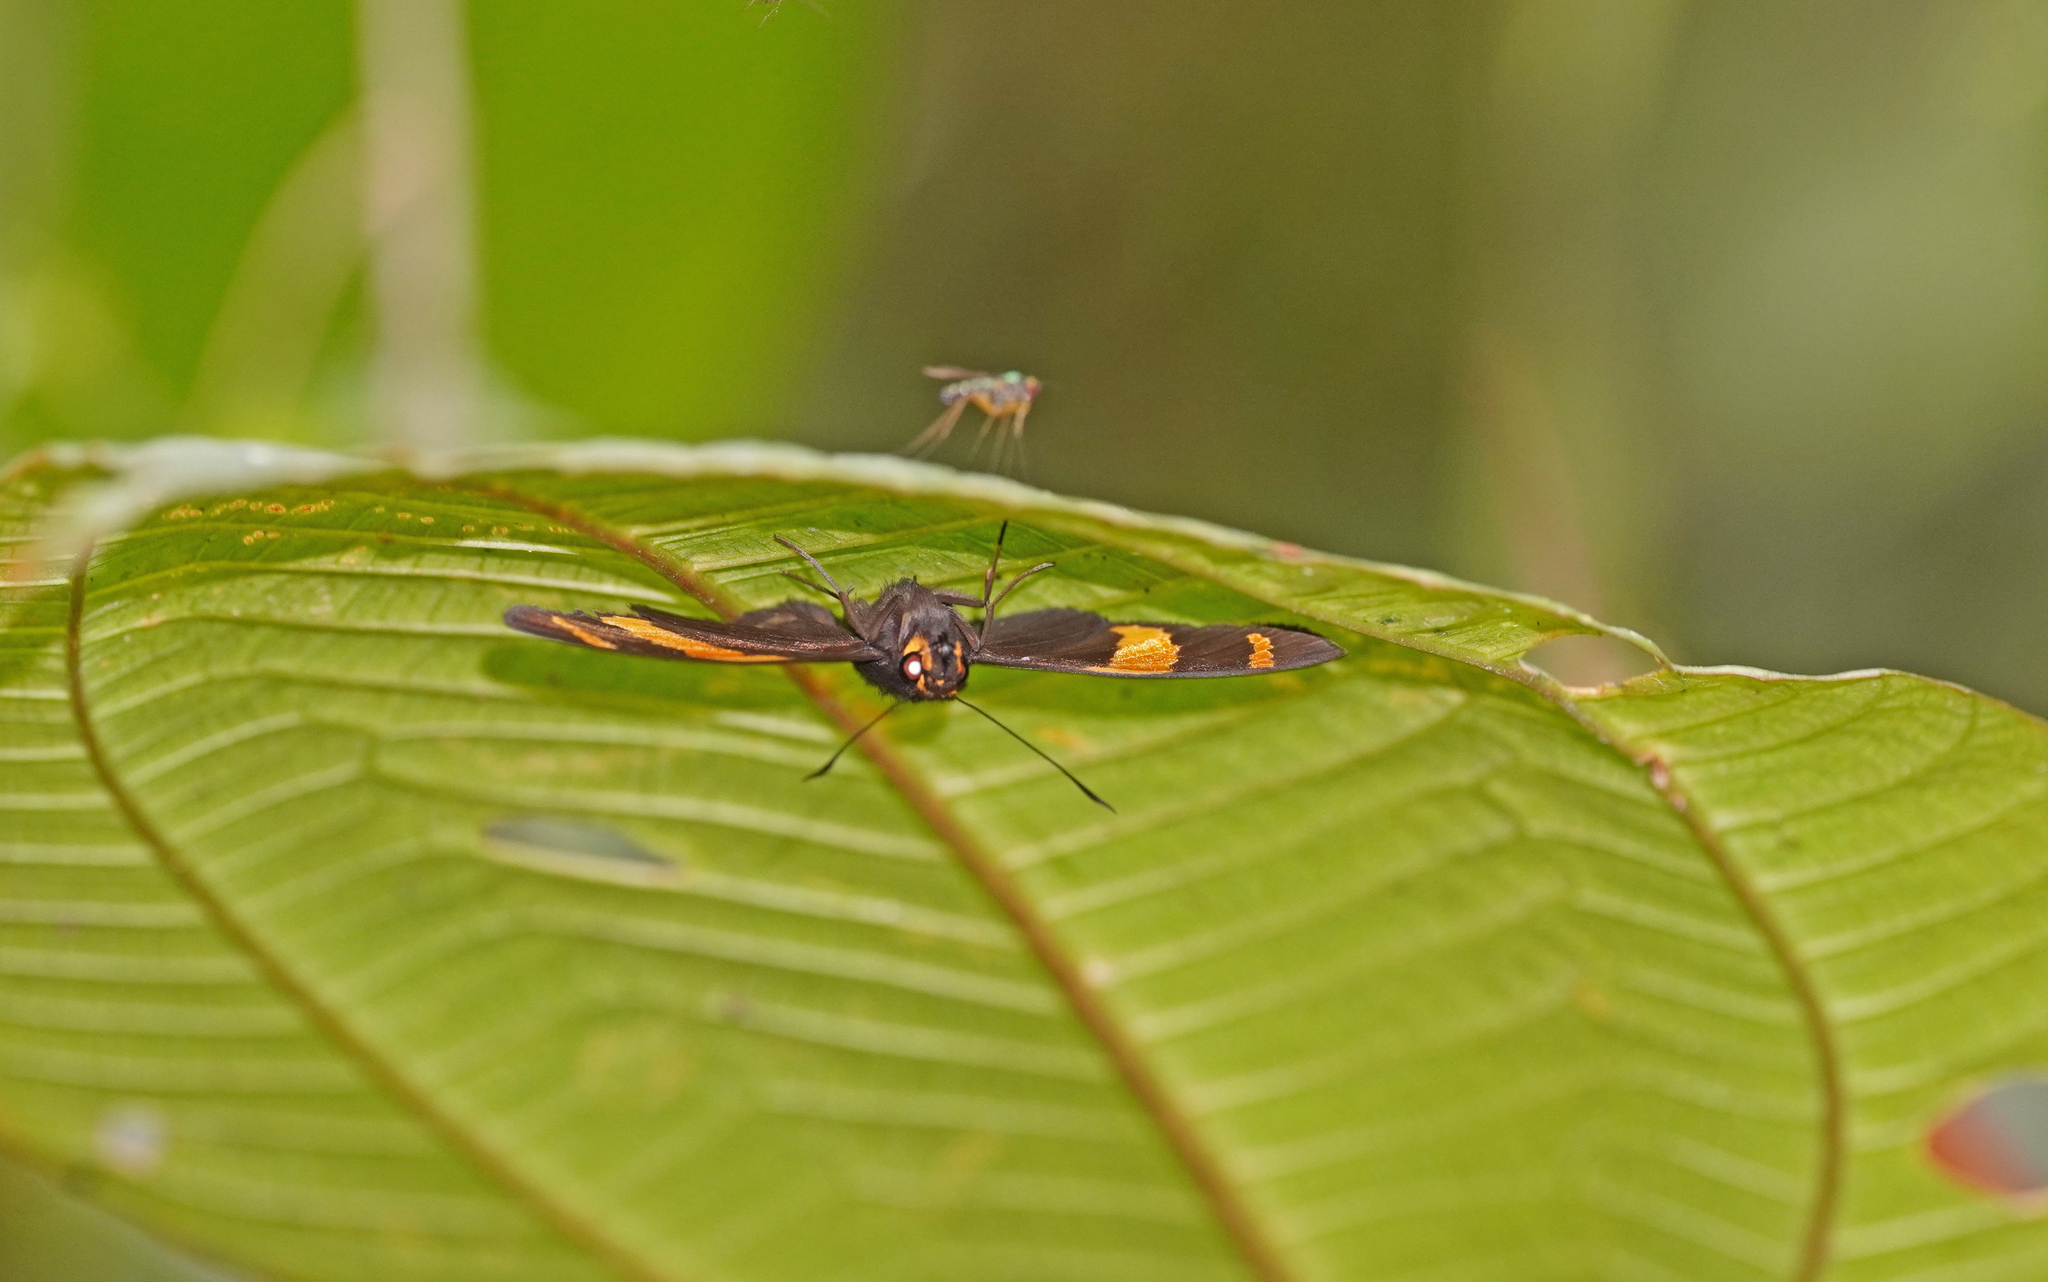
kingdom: Animalia
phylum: Arthropoda
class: Insecta
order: Lepidoptera
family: Hesperiidae
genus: Celaenorrhinus
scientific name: Celaenorrhinus suthina
